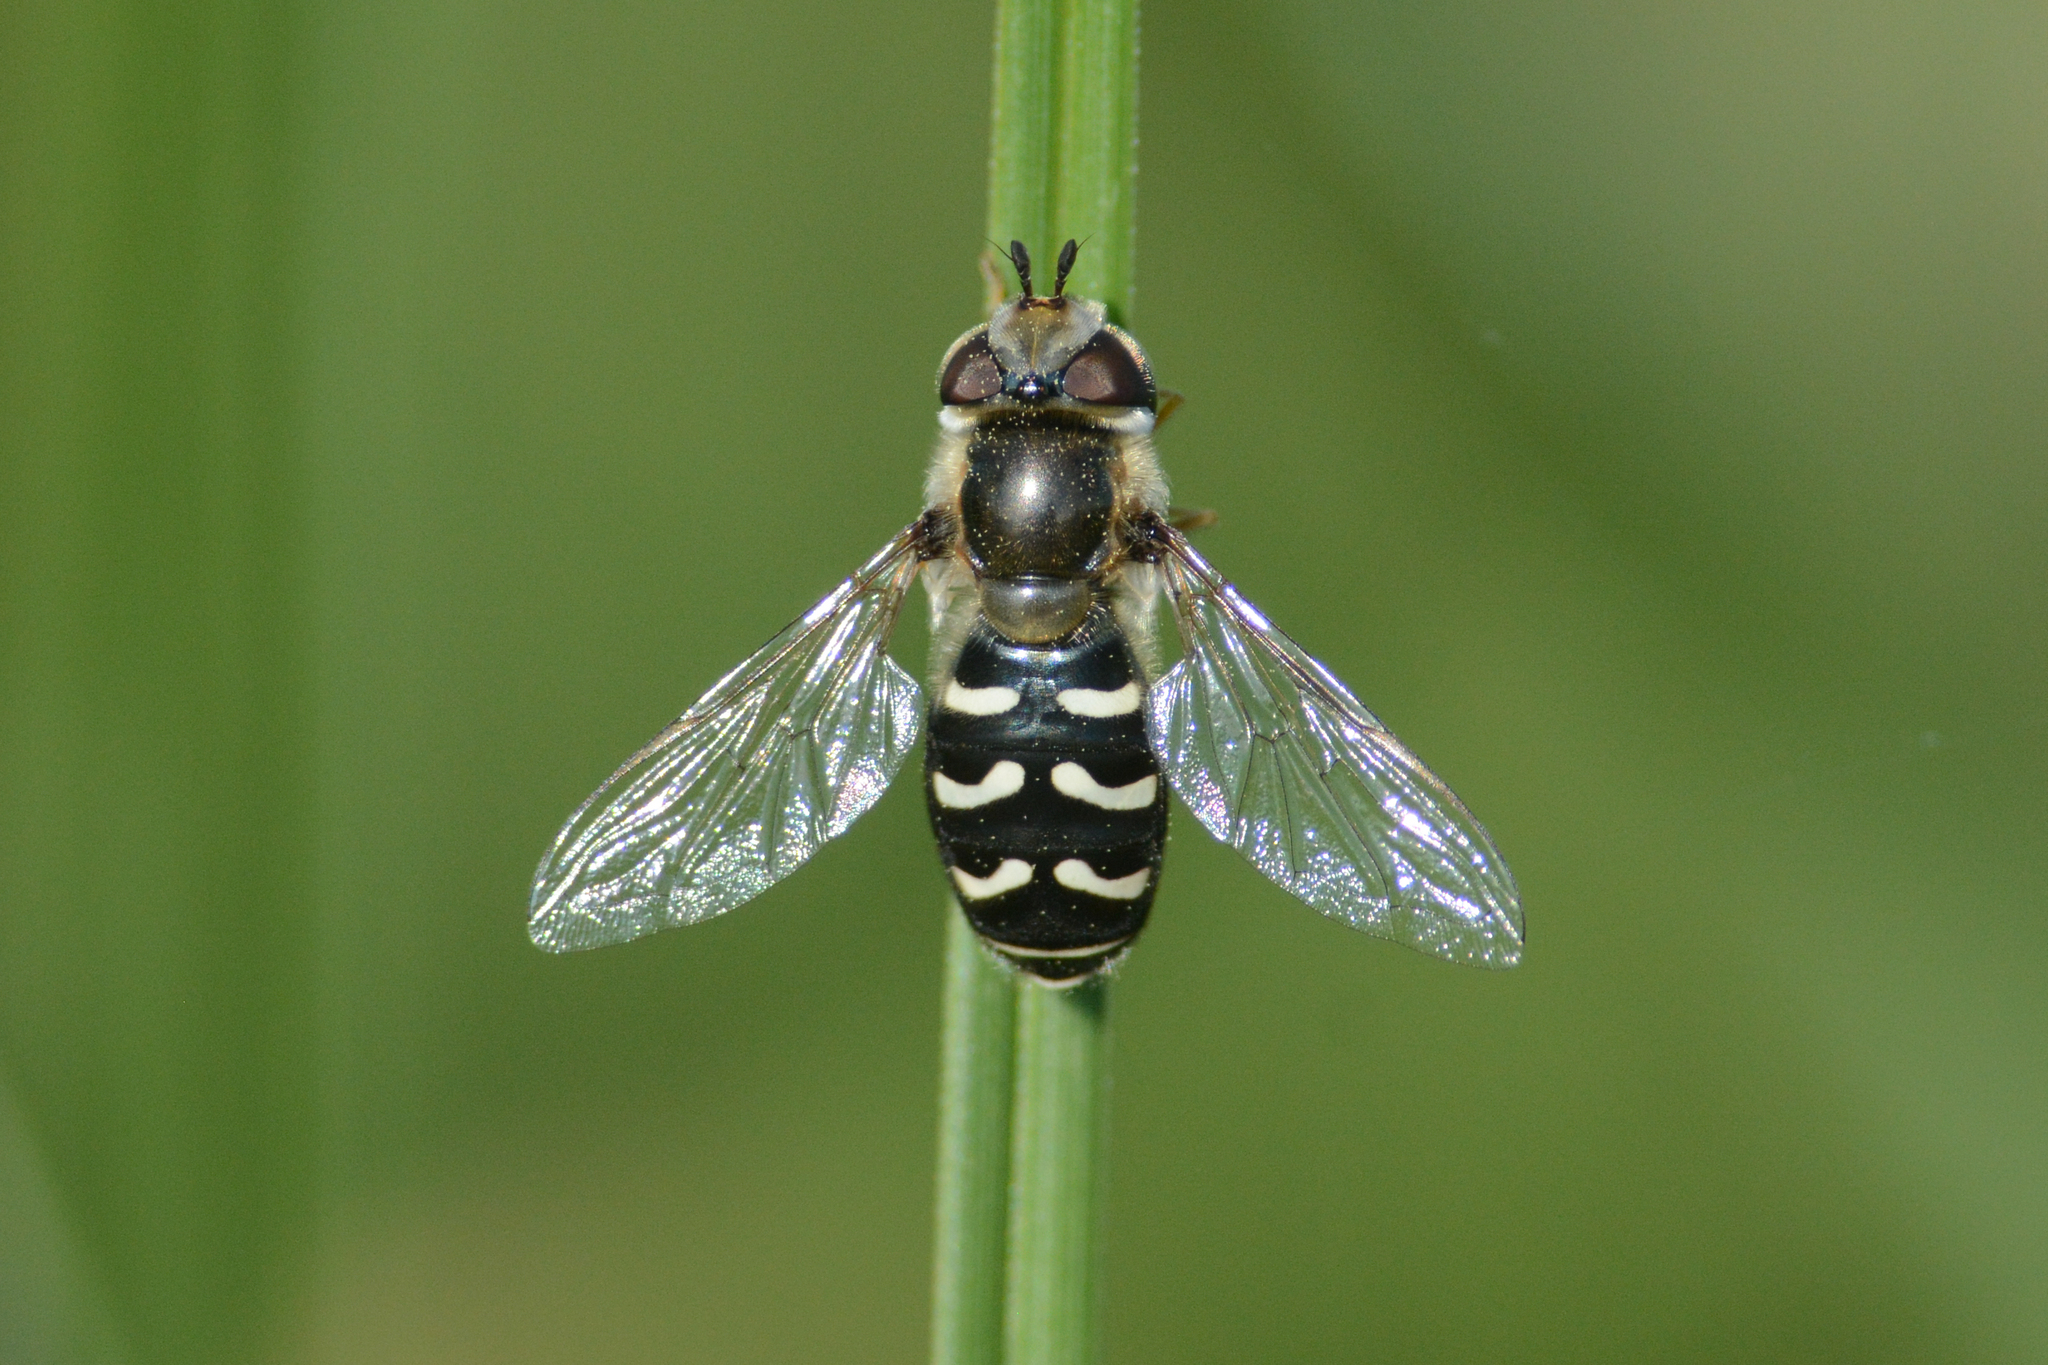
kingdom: Animalia
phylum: Arthropoda
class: Insecta
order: Diptera
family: Syrphidae
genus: Scaeva
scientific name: Scaeva affinis
